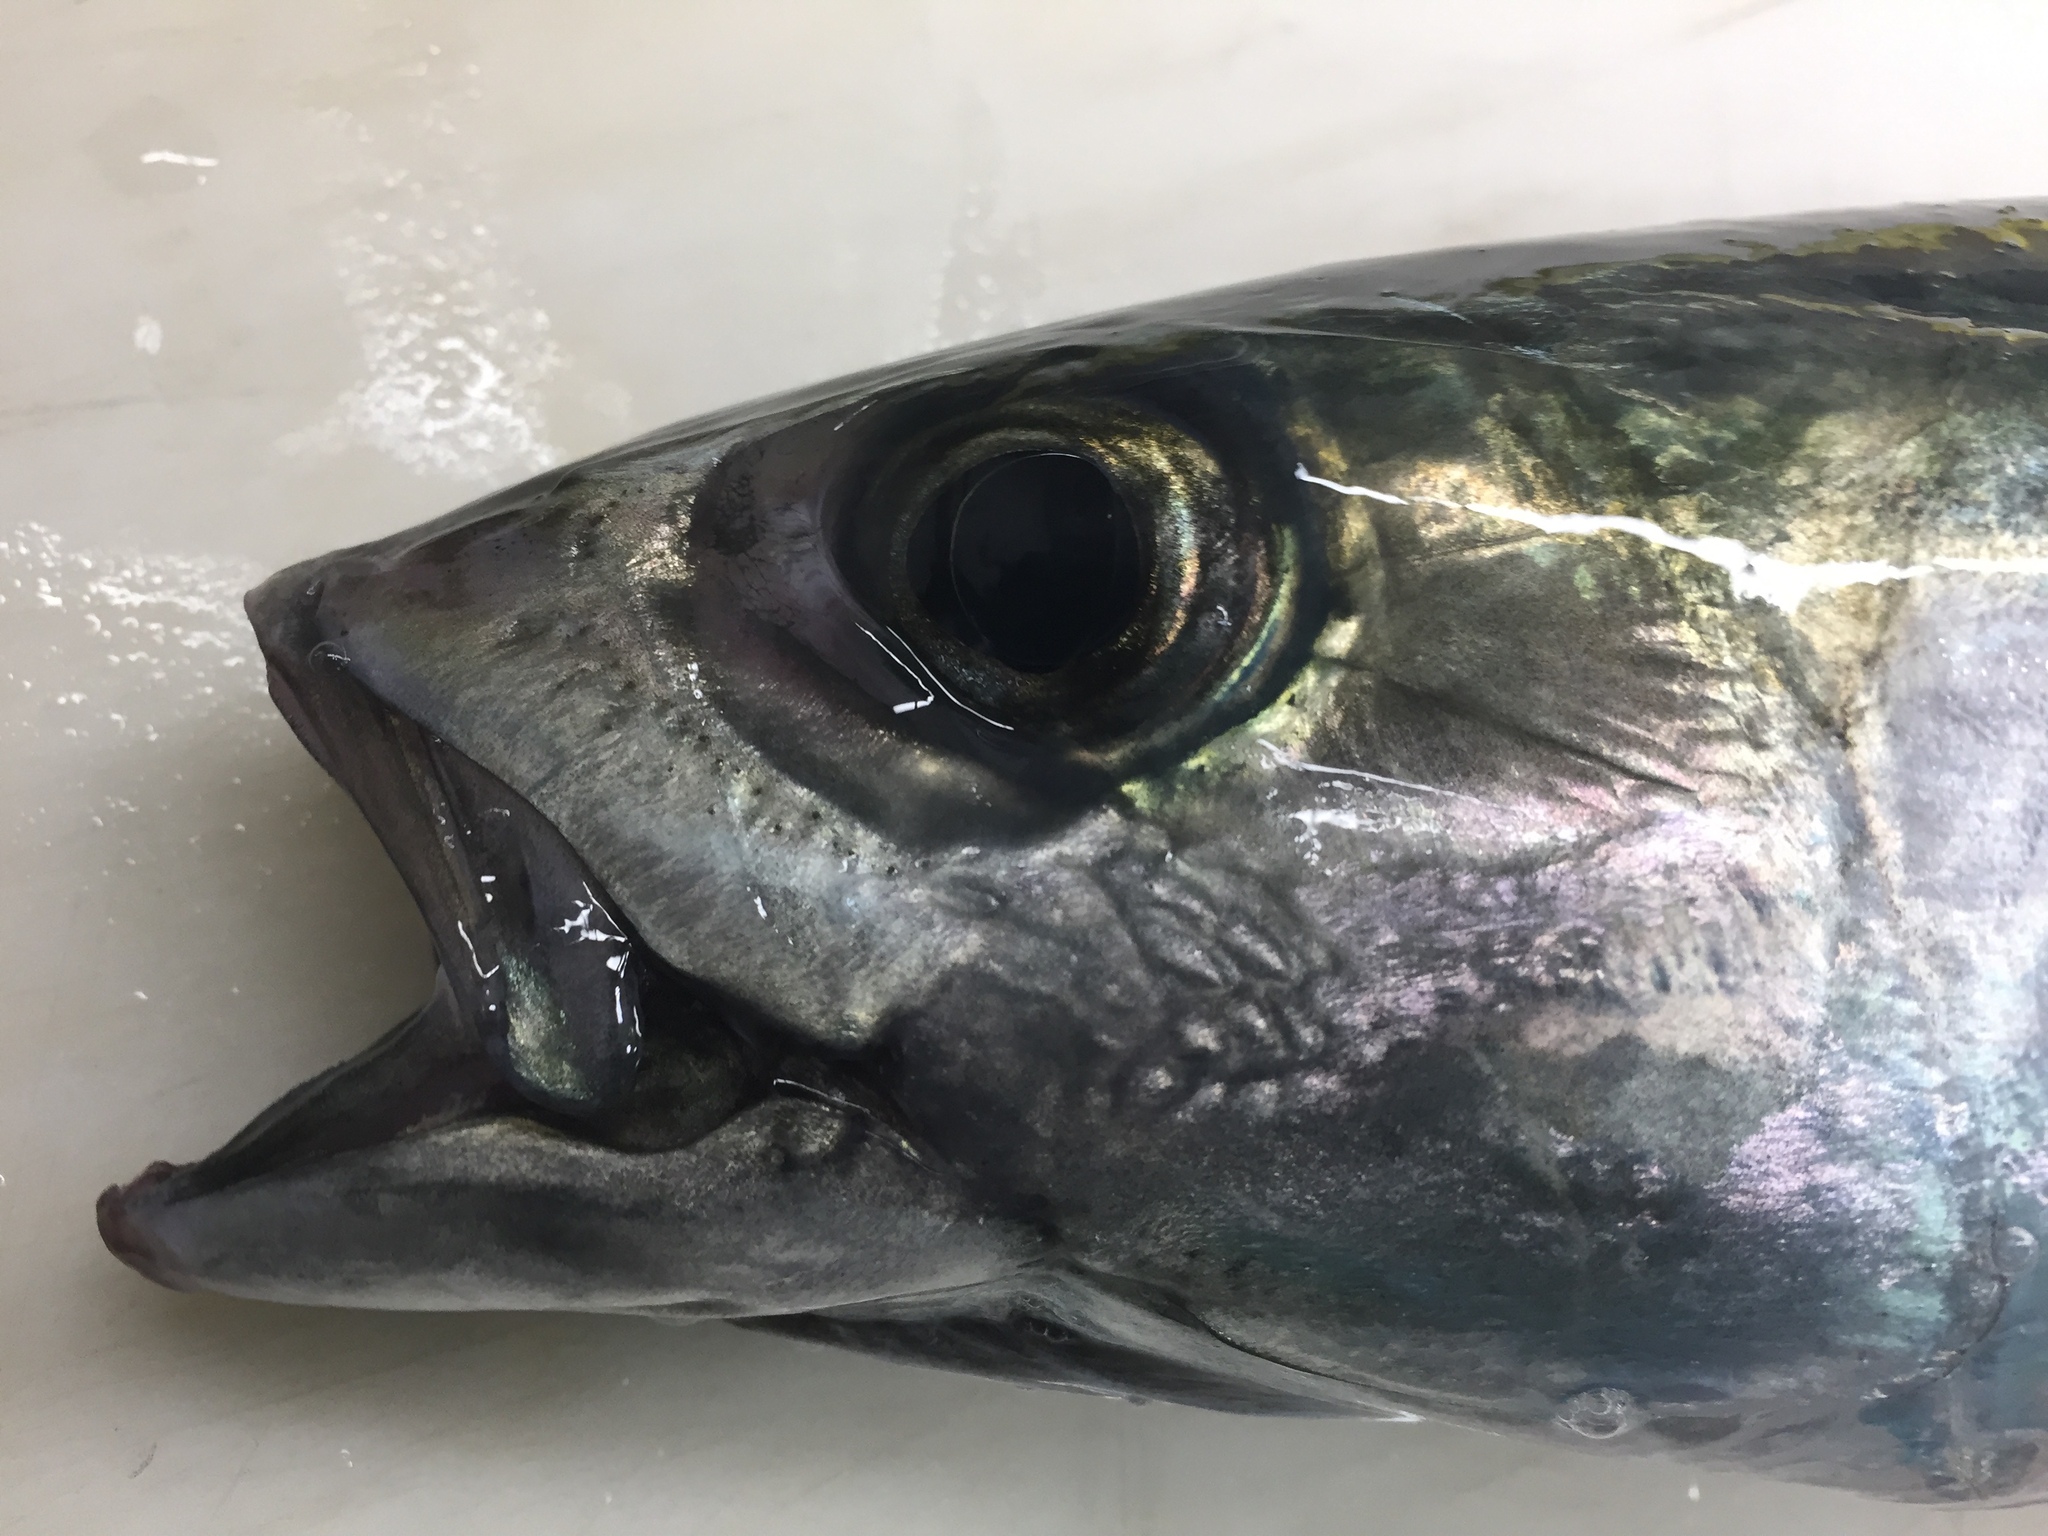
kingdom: Animalia
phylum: Chordata
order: Perciformes
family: Scombridae
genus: Scomber
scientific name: Scomber japonicus
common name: Chub mackerel
